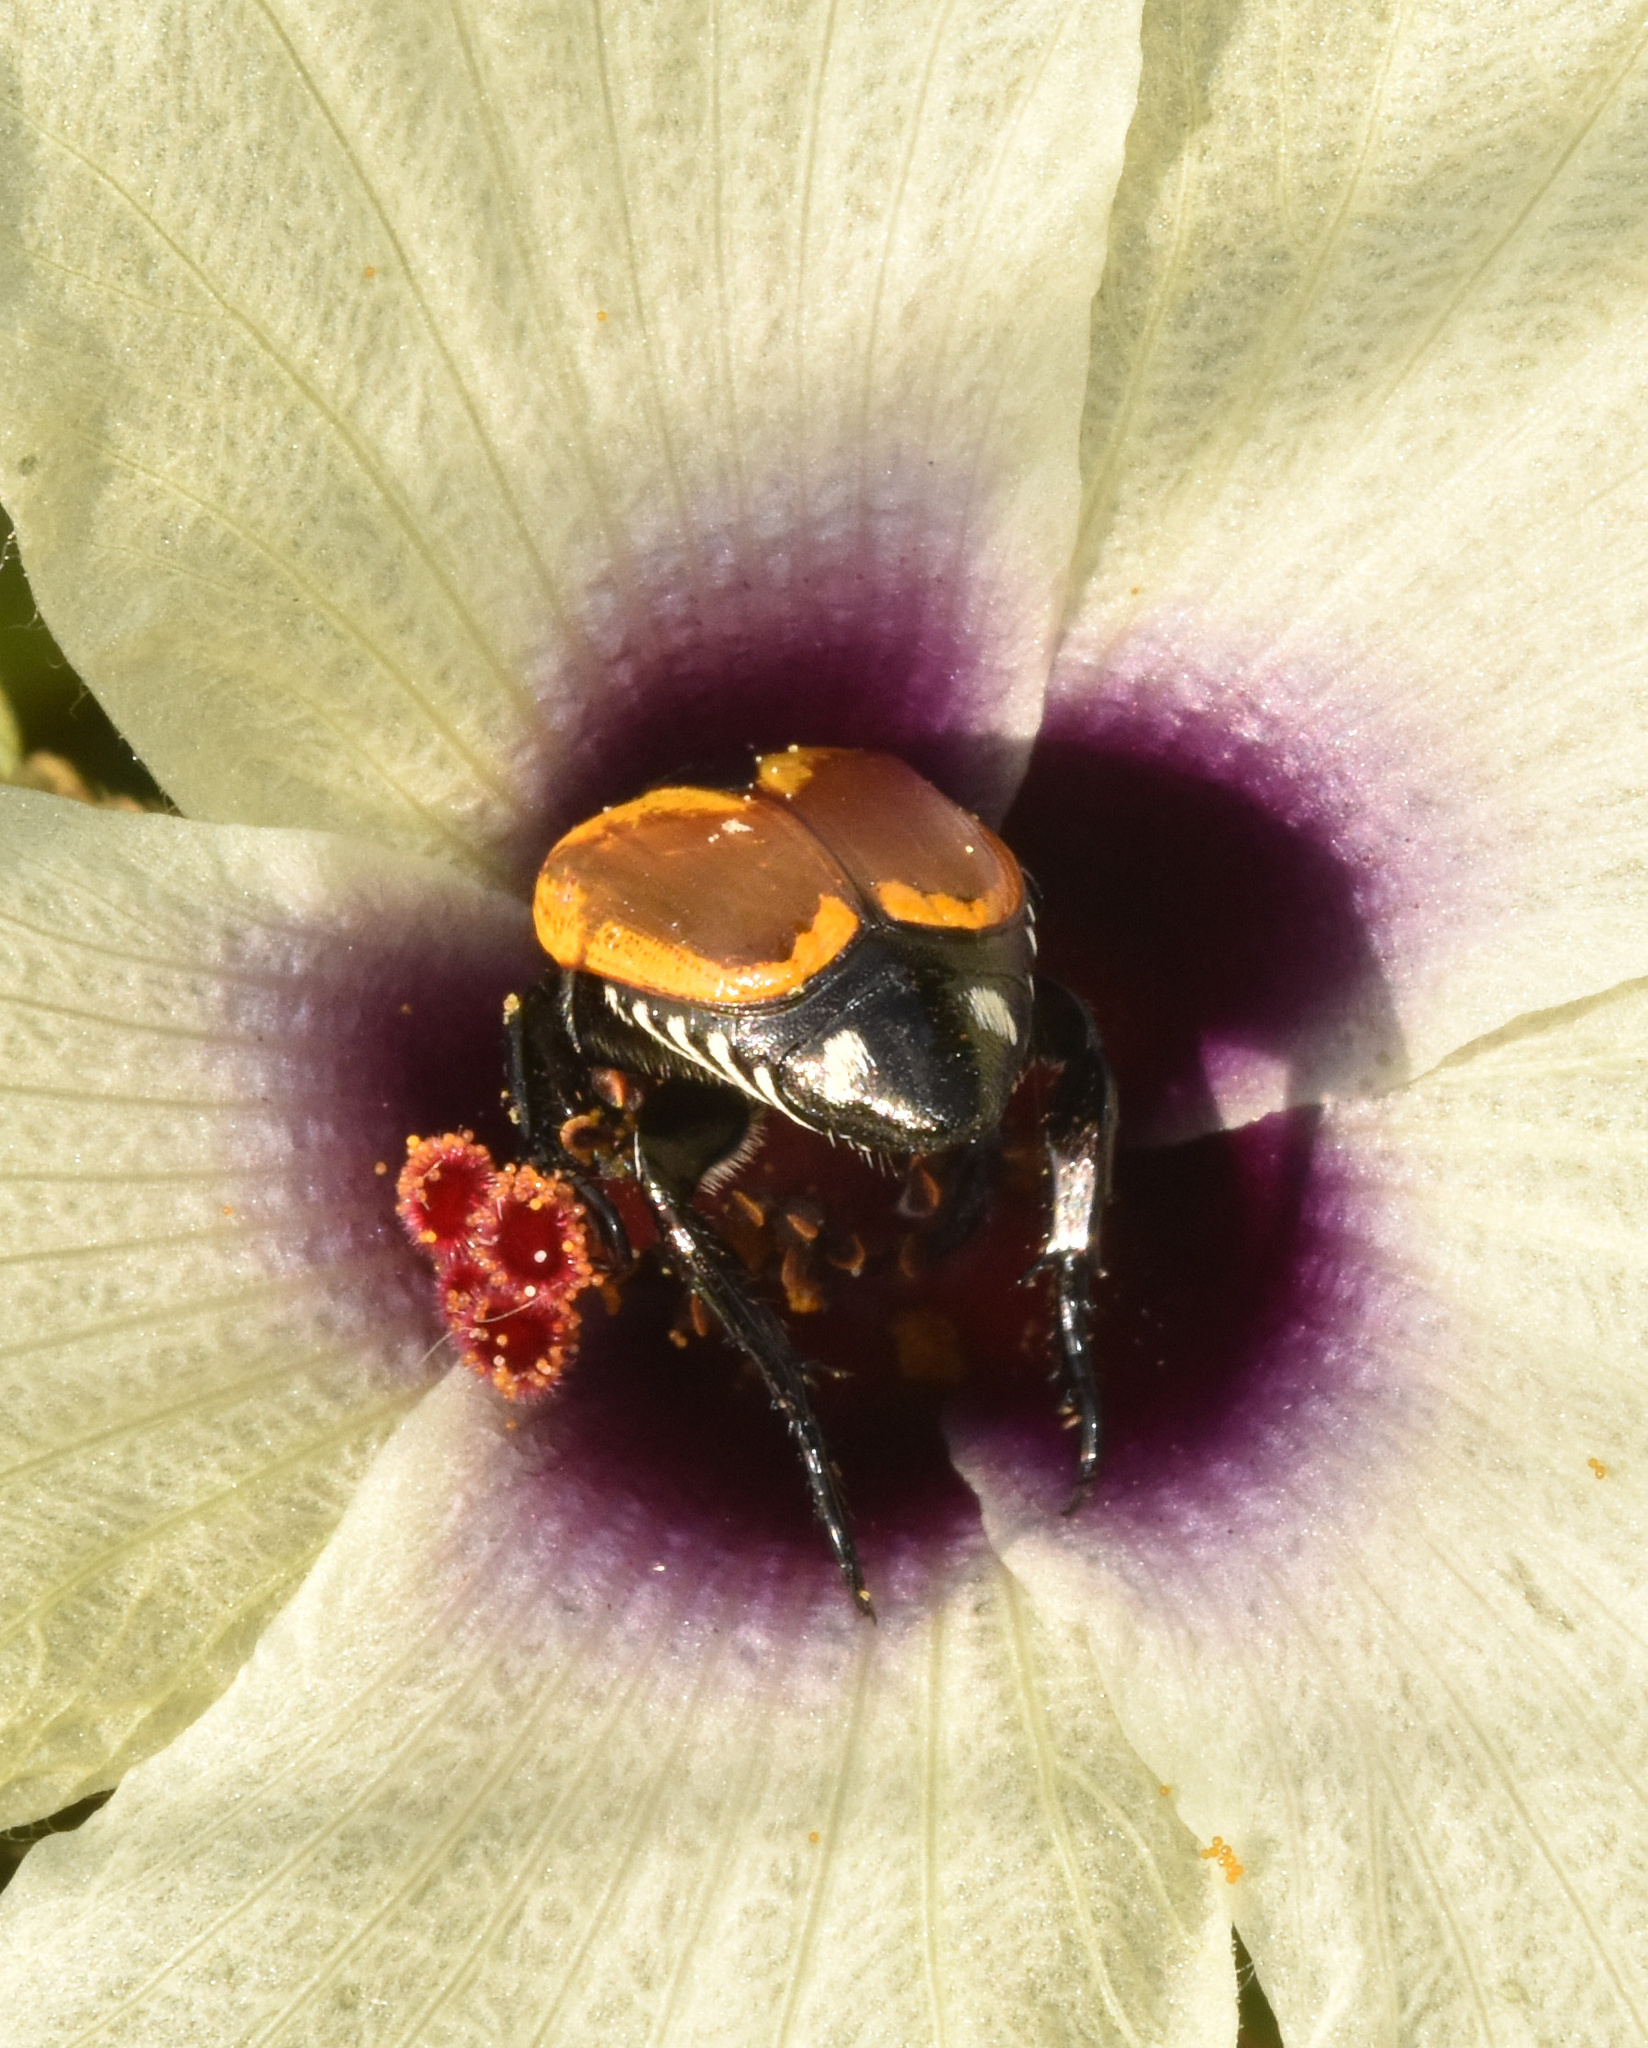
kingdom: Animalia
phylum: Arthropoda
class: Insecta
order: Coleoptera
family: Scarabaeidae
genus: Popillia
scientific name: Popillia bipunctata
